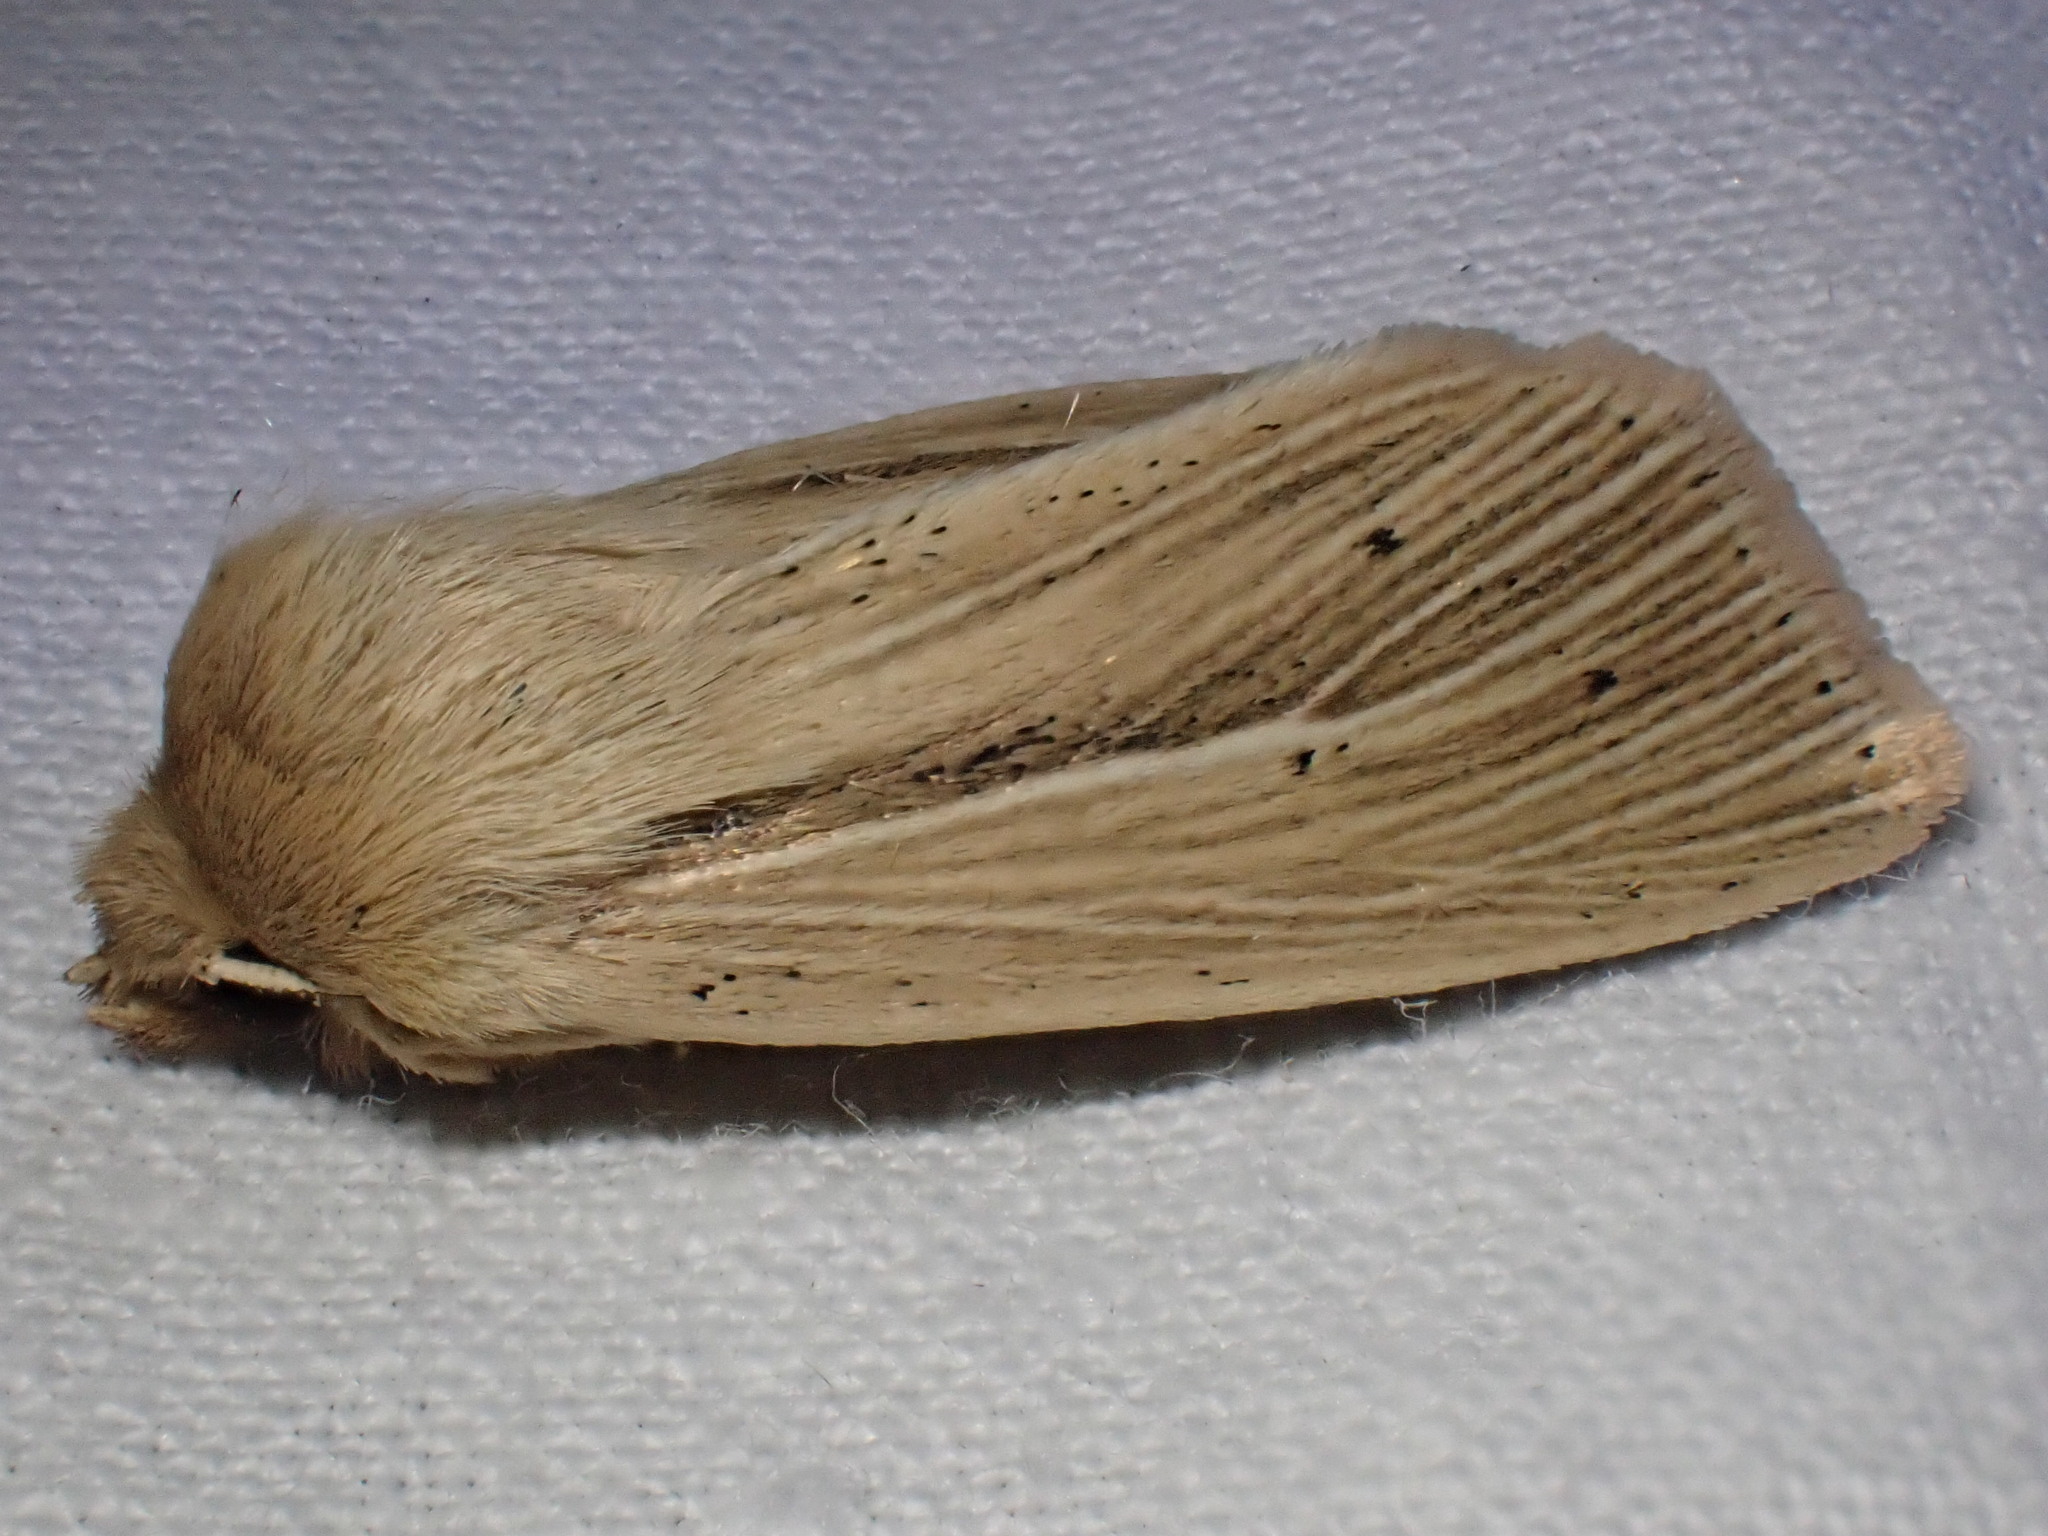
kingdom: Animalia
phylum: Arthropoda
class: Insecta
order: Lepidoptera
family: Noctuidae
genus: Mythimna
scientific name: Mythimna impura
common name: Smoky wainscot
